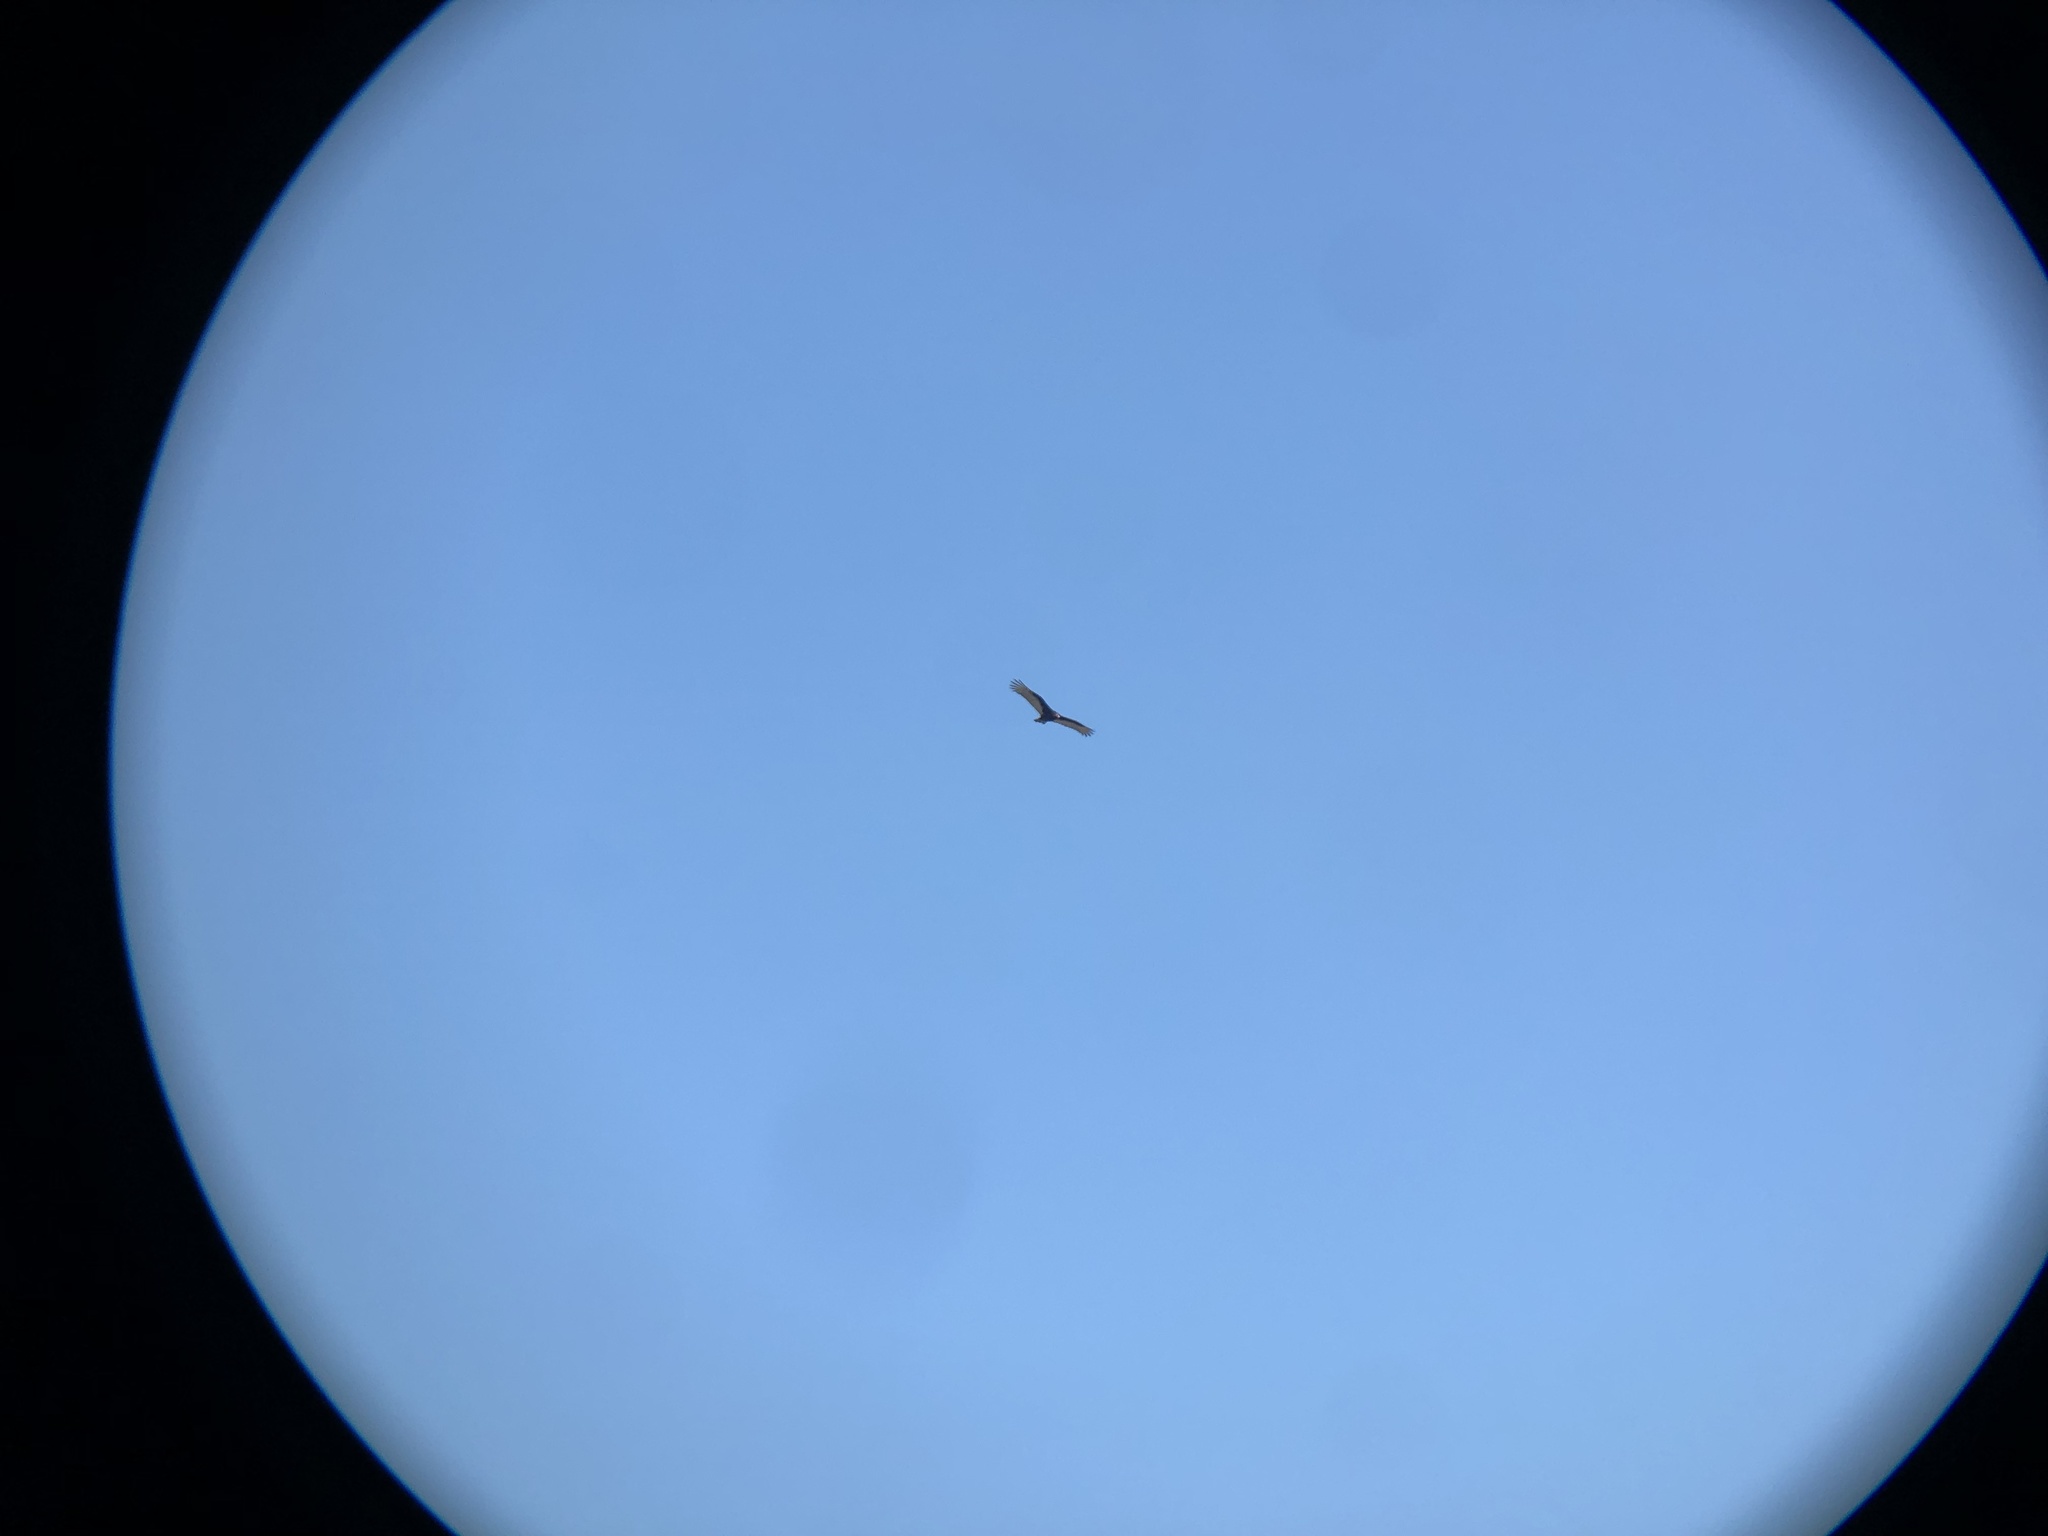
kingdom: Animalia
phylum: Chordata
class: Aves
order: Accipitriformes
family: Cathartidae
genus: Cathartes
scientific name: Cathartes aura
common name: Turkey vulture
